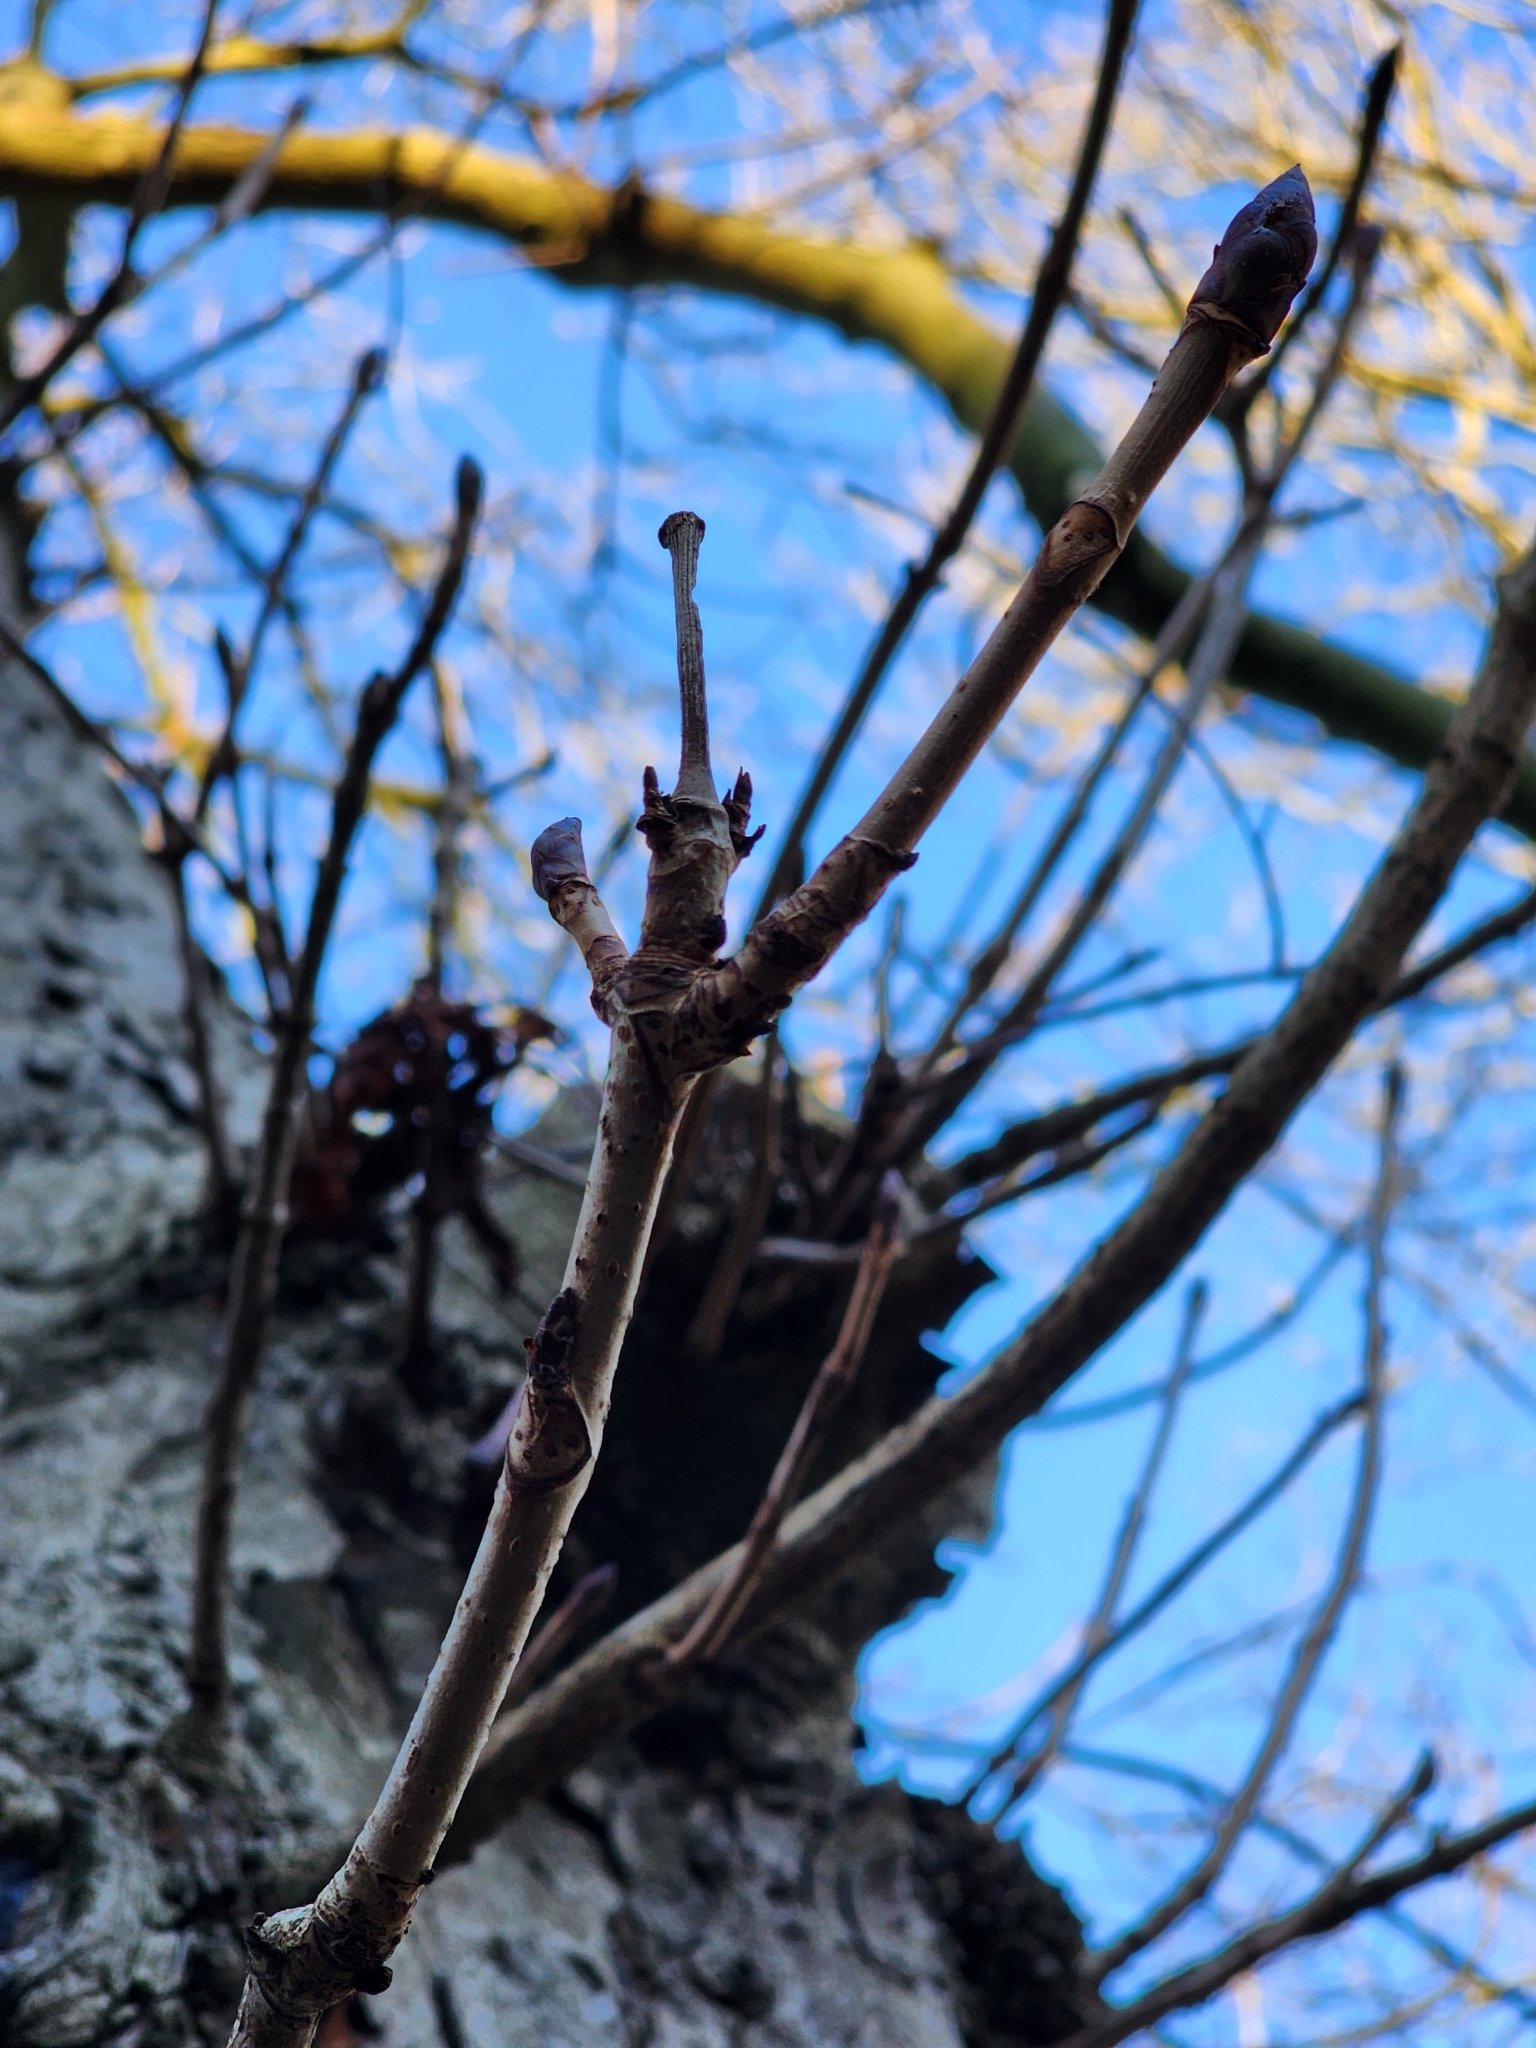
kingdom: Plantae
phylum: Tracheophyta
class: Magnoliopsida
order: Sapindales
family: Sapindaceae
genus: Aesculus
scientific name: Aesculus hippocastanum
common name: Horse-chestnut
